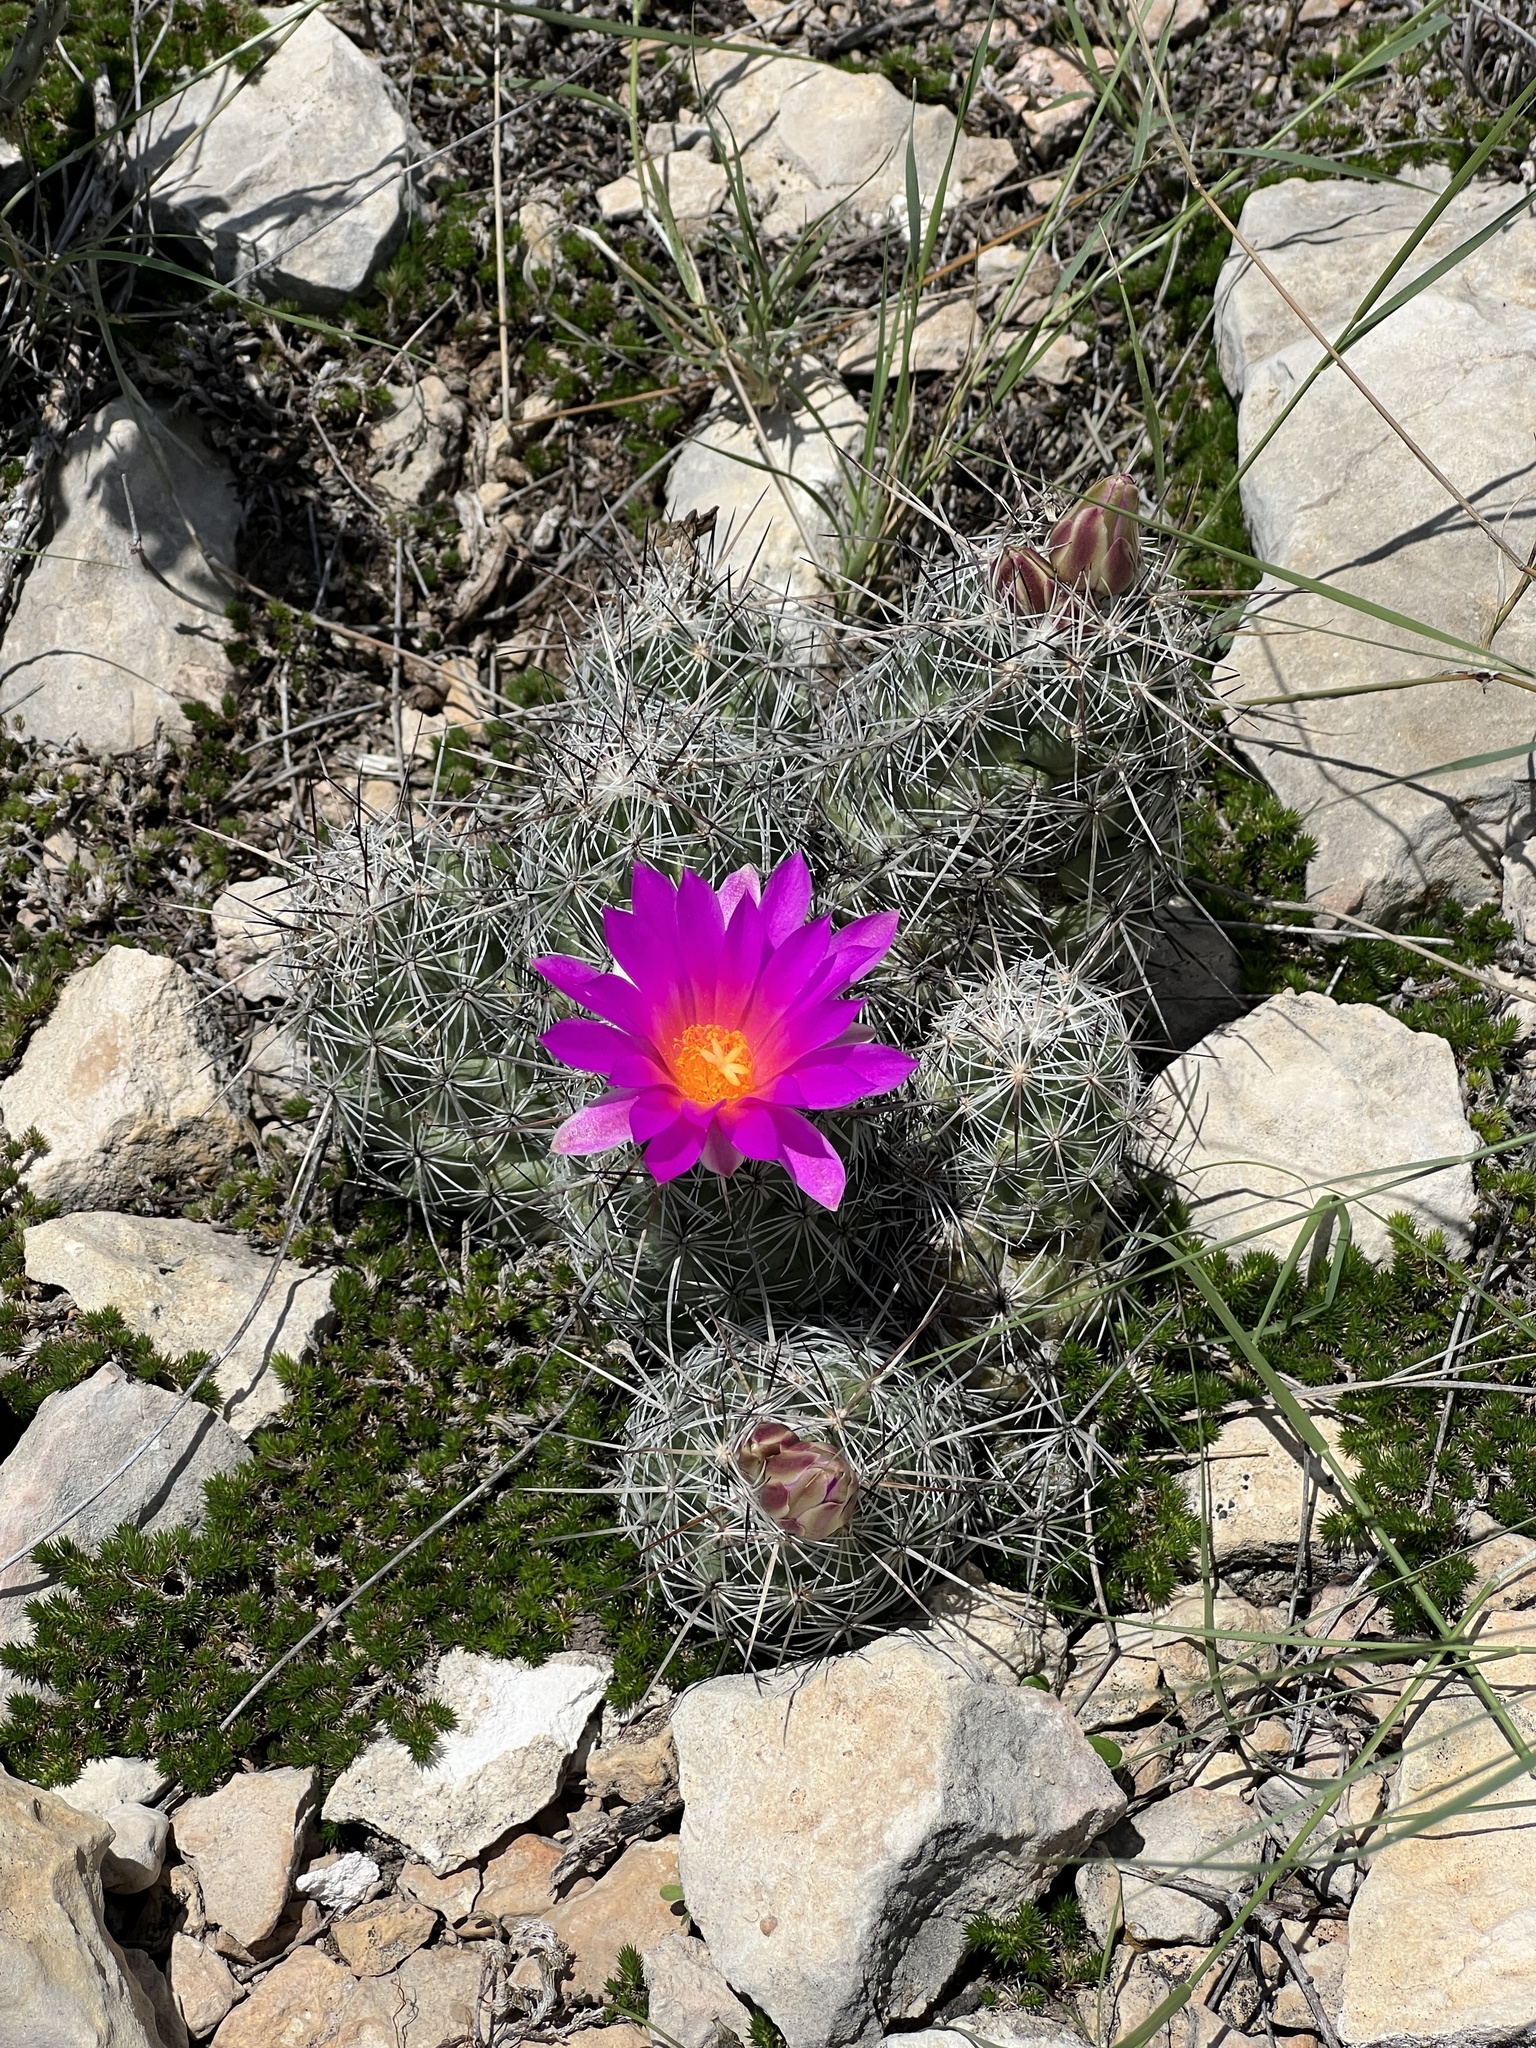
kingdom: Plantae
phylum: Tracheophyta
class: Magnoliopsida
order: Caryophyllales
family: Cactaceae
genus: Cochemiea
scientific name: Cochemiea conoidea
